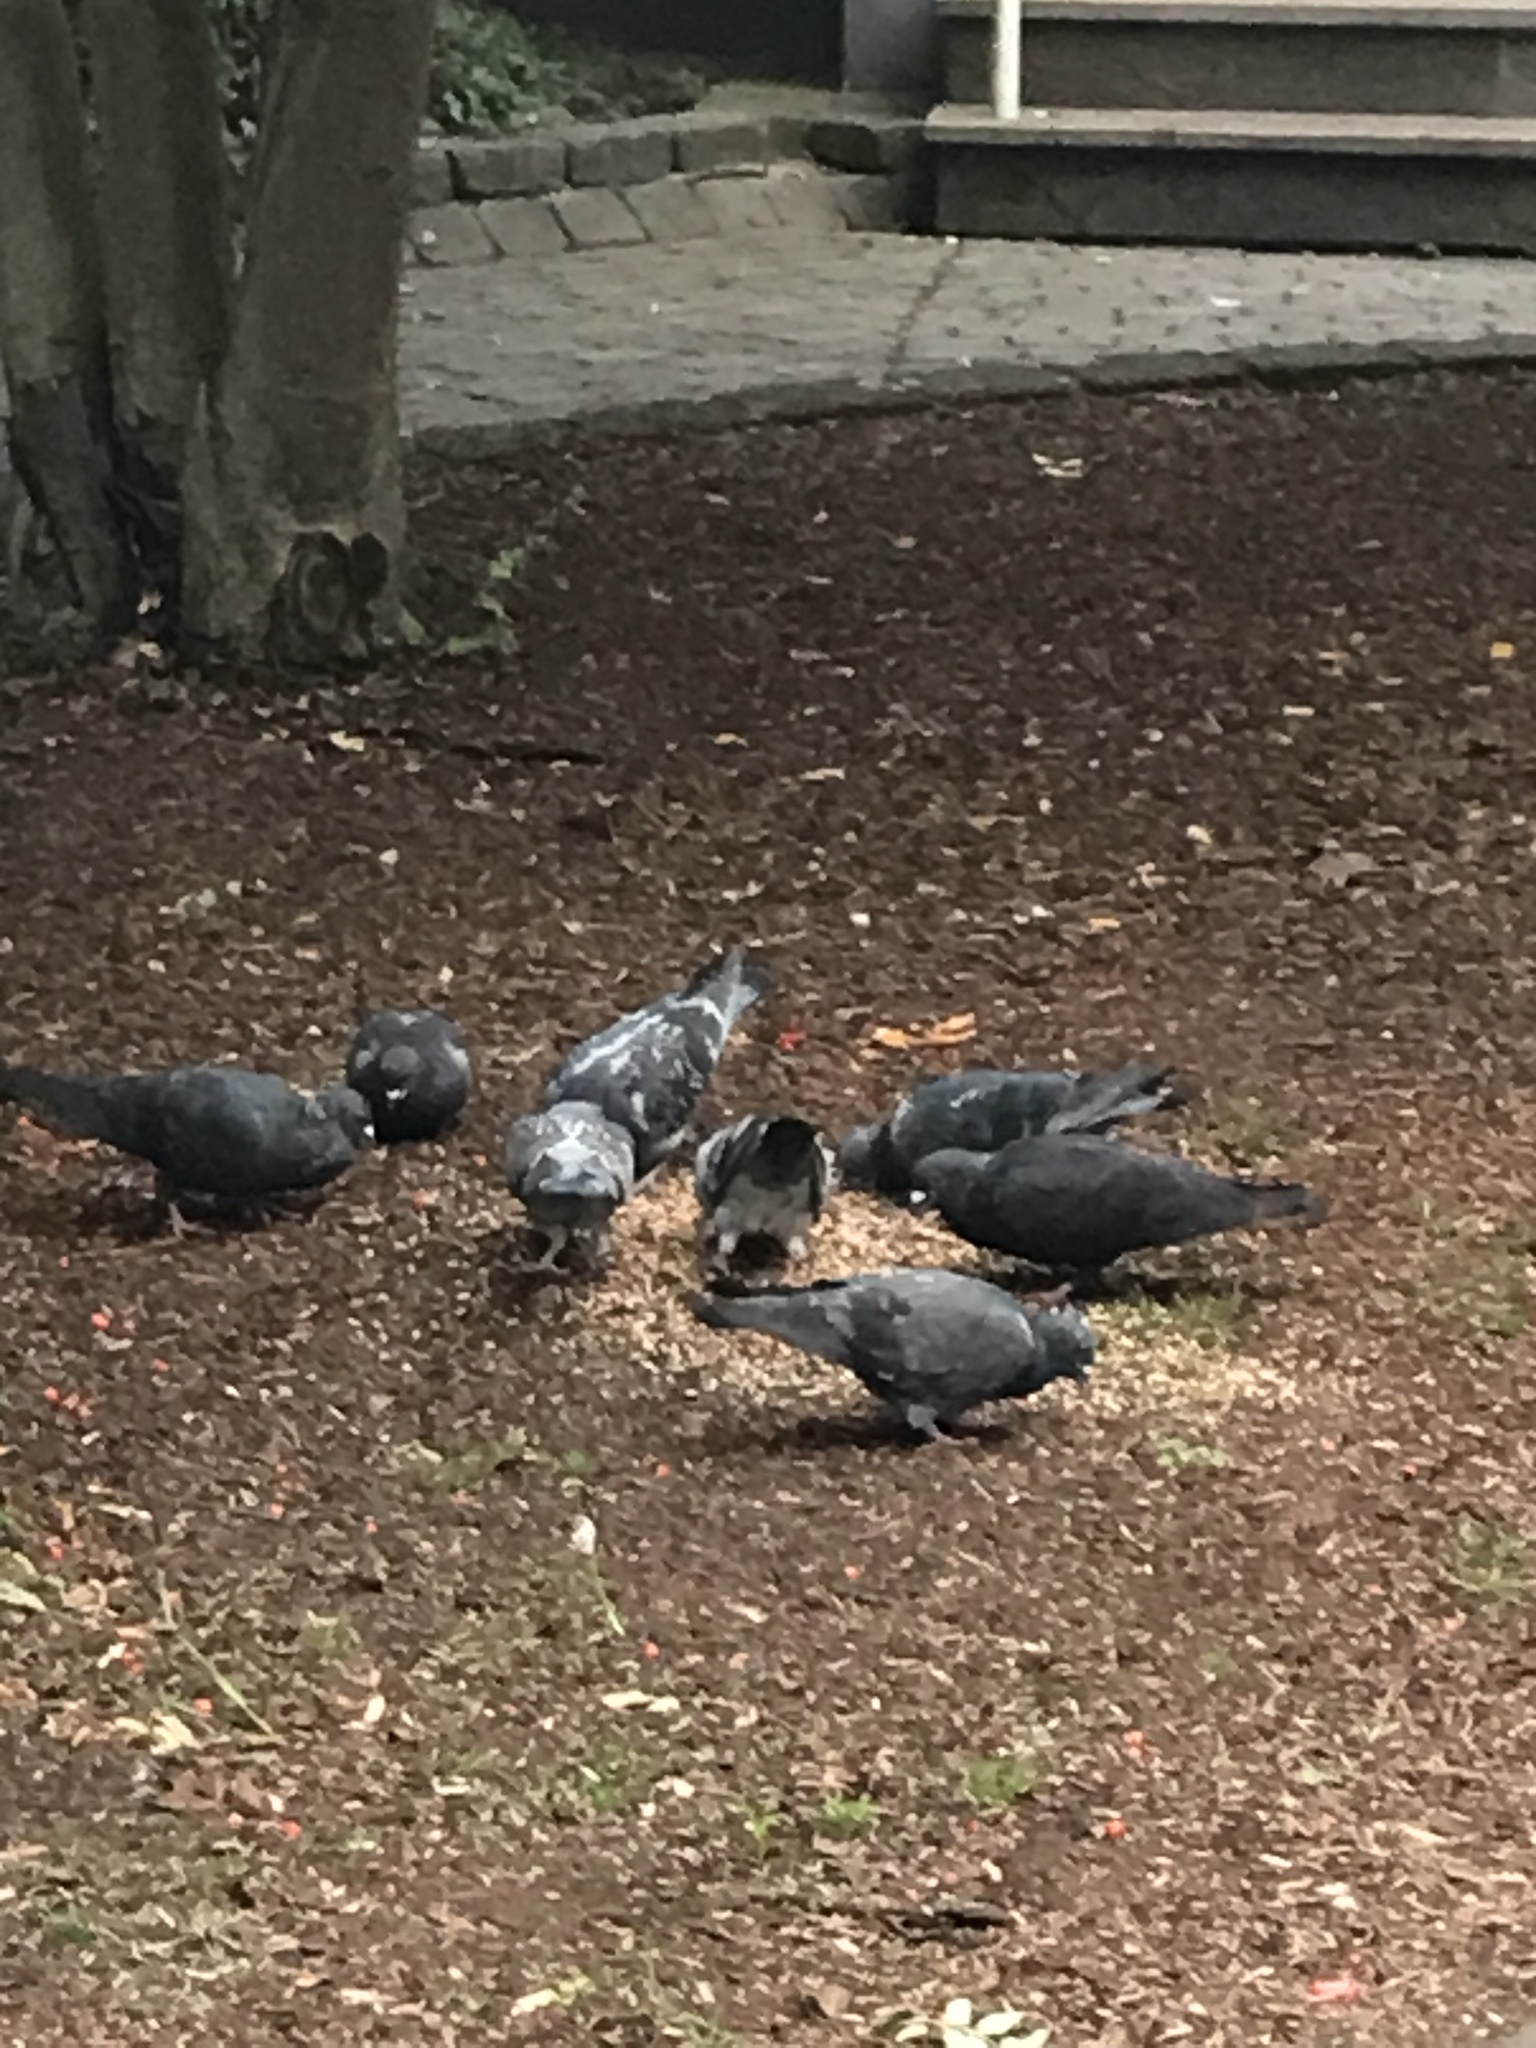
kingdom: Animalia
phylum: Chordata
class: Aves
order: Columbiformes
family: Columbidae
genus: Columba
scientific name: Columba livia
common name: Rock pigeon
